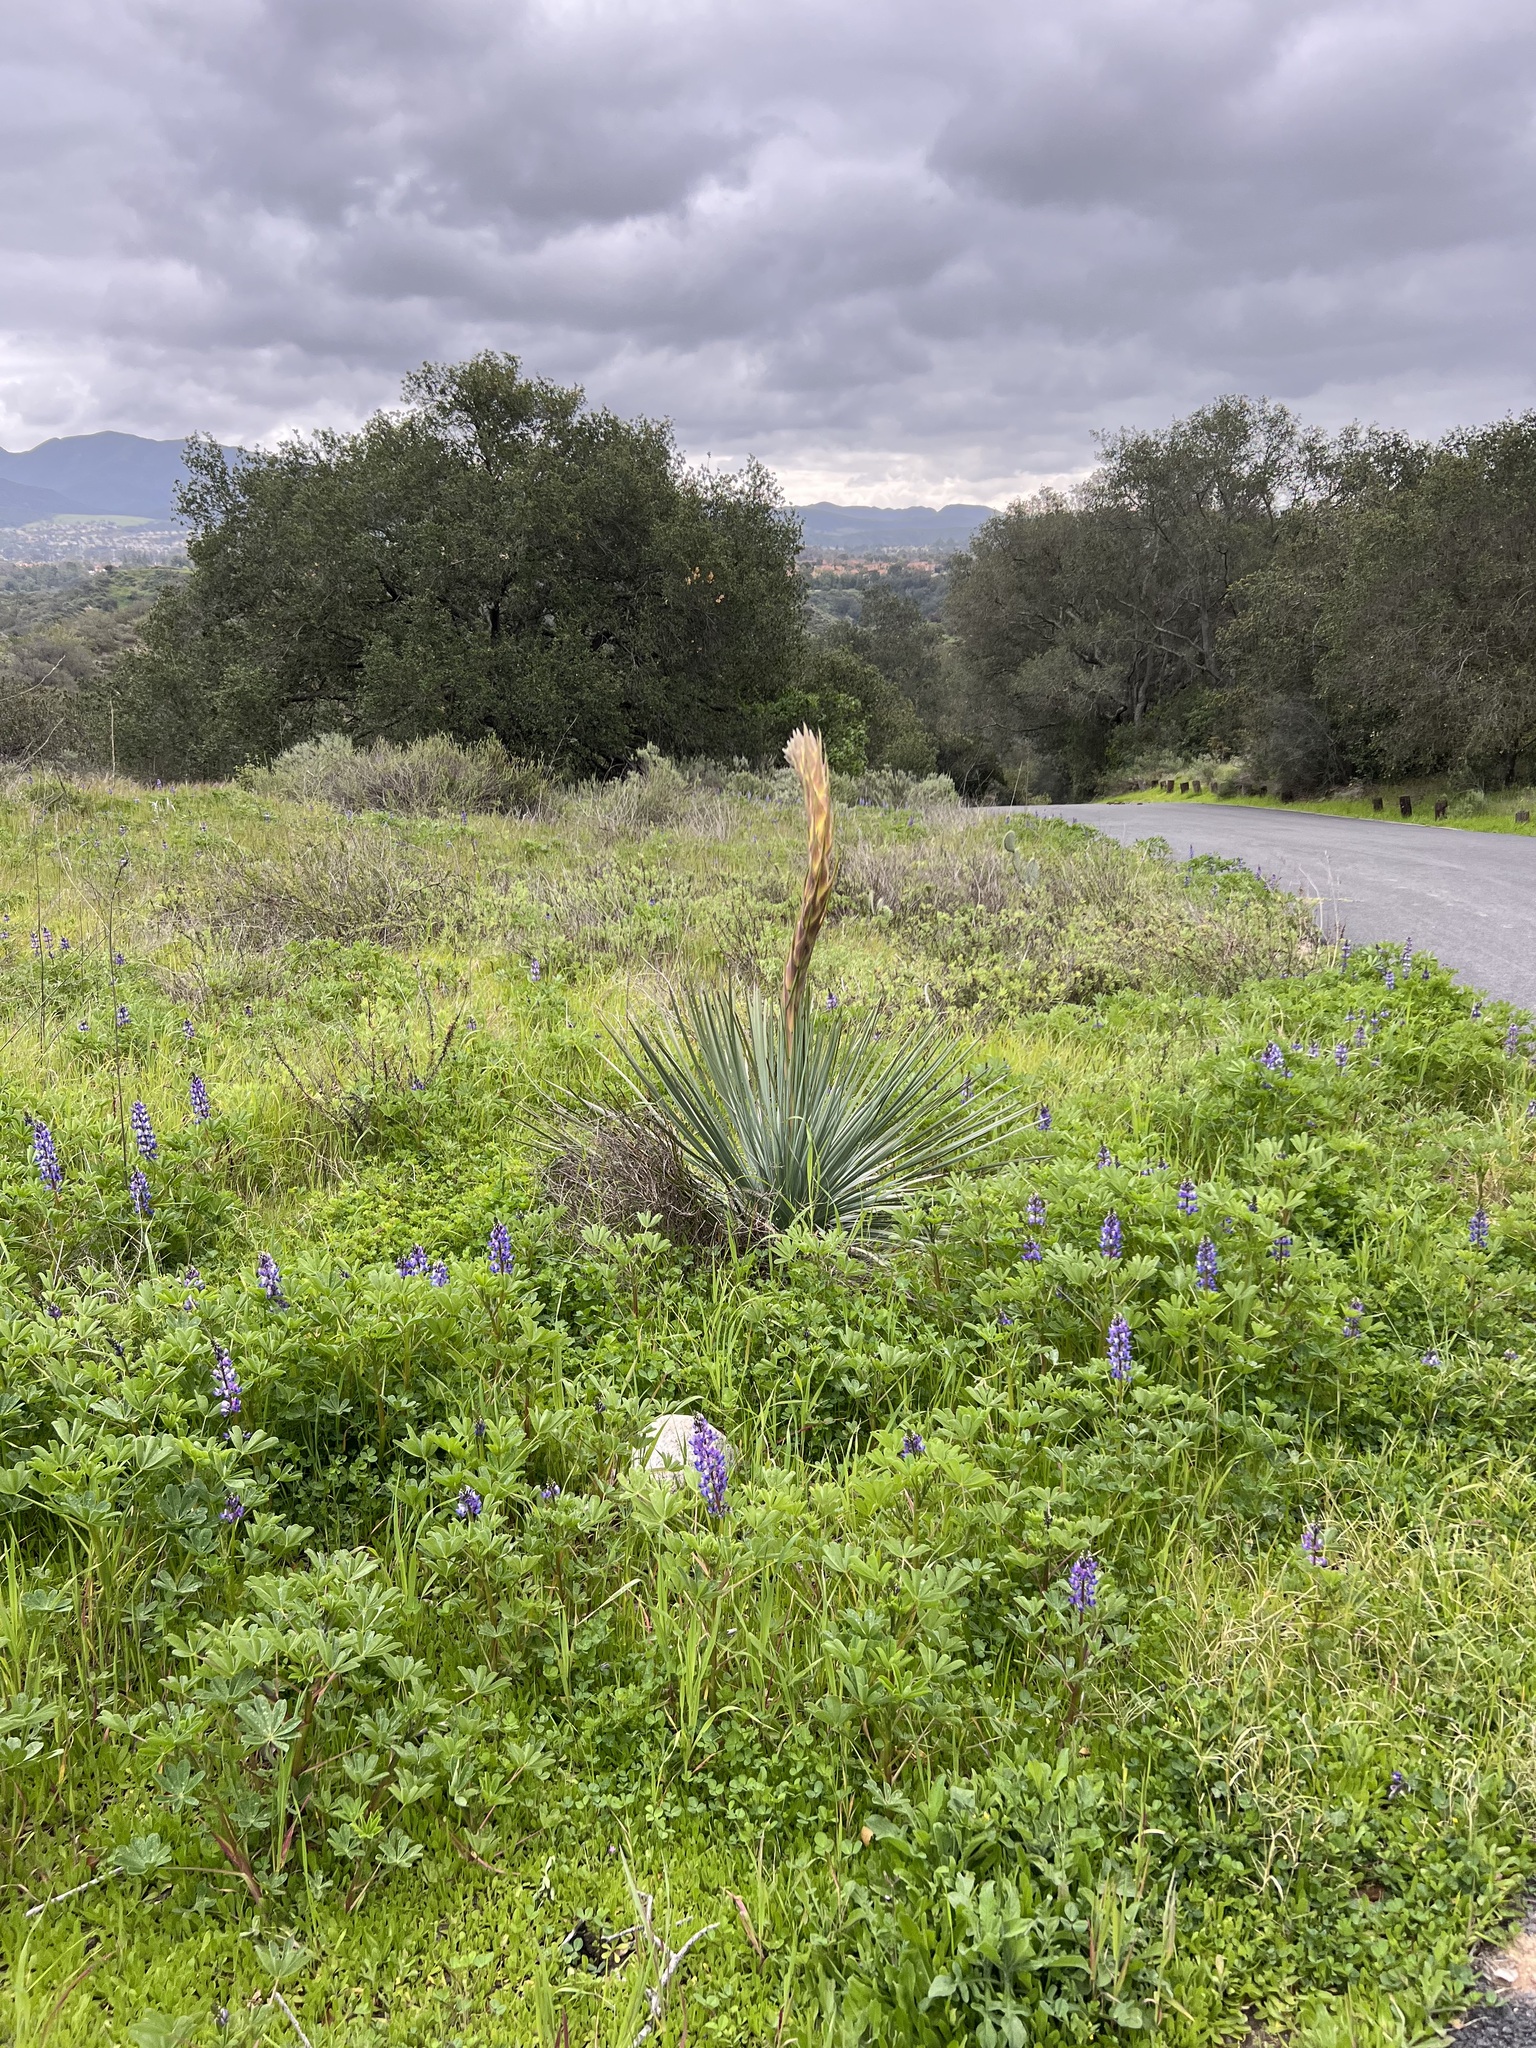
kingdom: Plantae
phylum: Tracheophyta
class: Liliopsida
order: Asparagales
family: Asparagaceae
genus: Hesperoyucca
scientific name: Hesperoyucca whipplei
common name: Our lord's-candle
